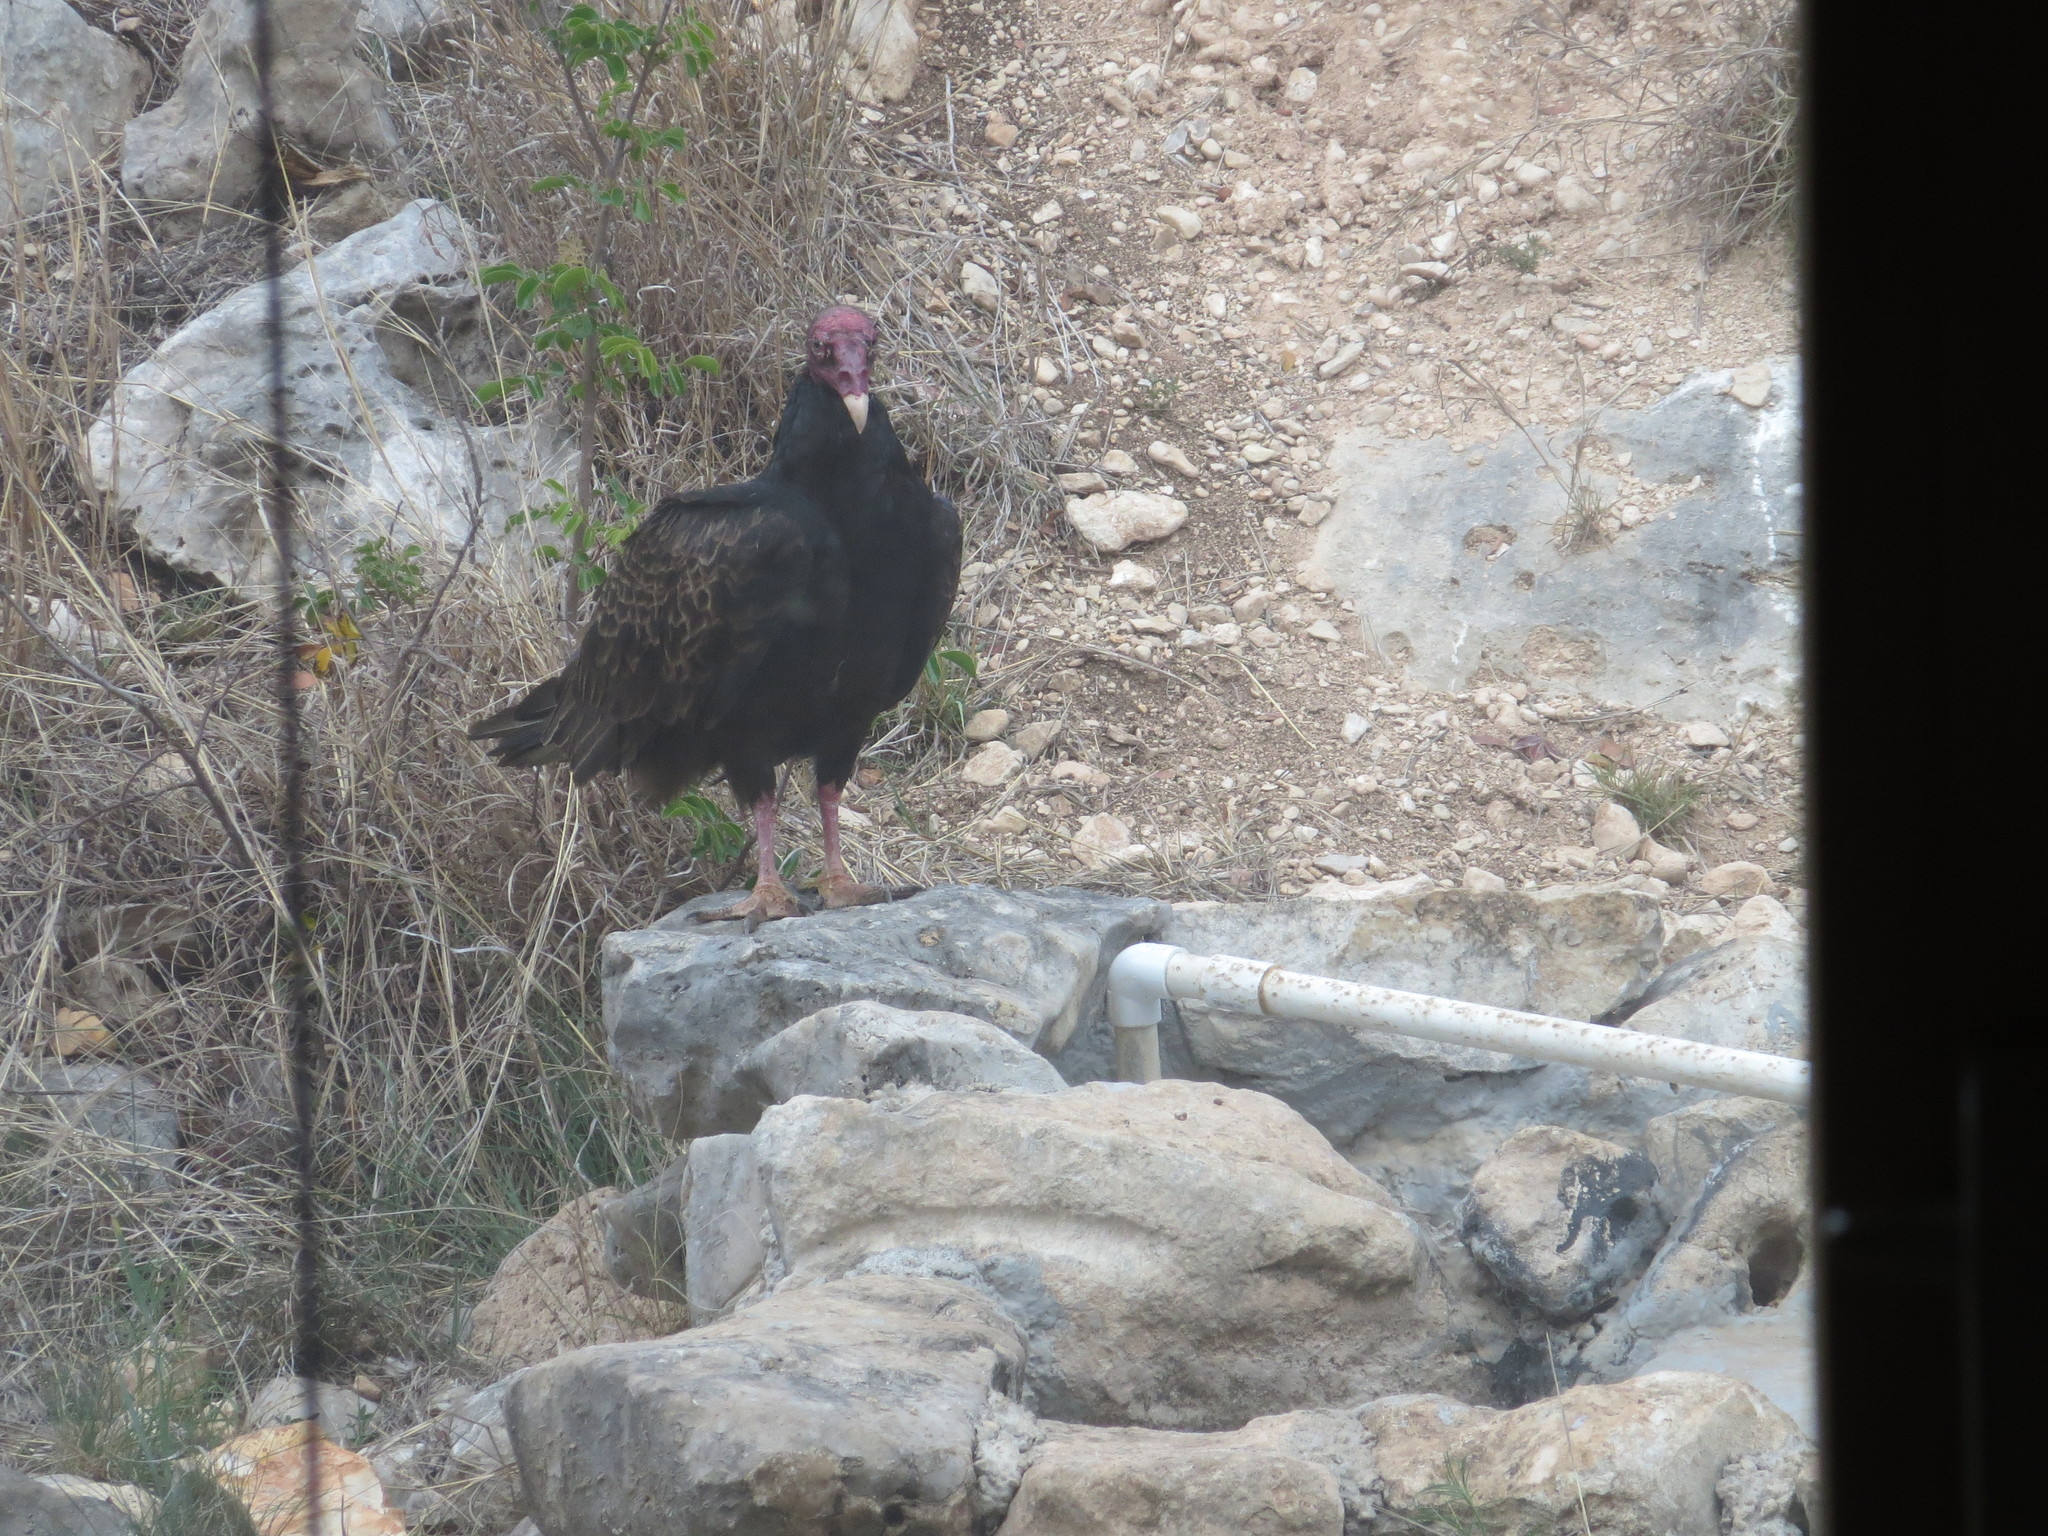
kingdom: Animalia
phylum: Chordata
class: Aves
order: Accipitriformes
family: Cathartidae
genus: Cathartes
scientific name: Cathartes aura
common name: Turkey vulture
